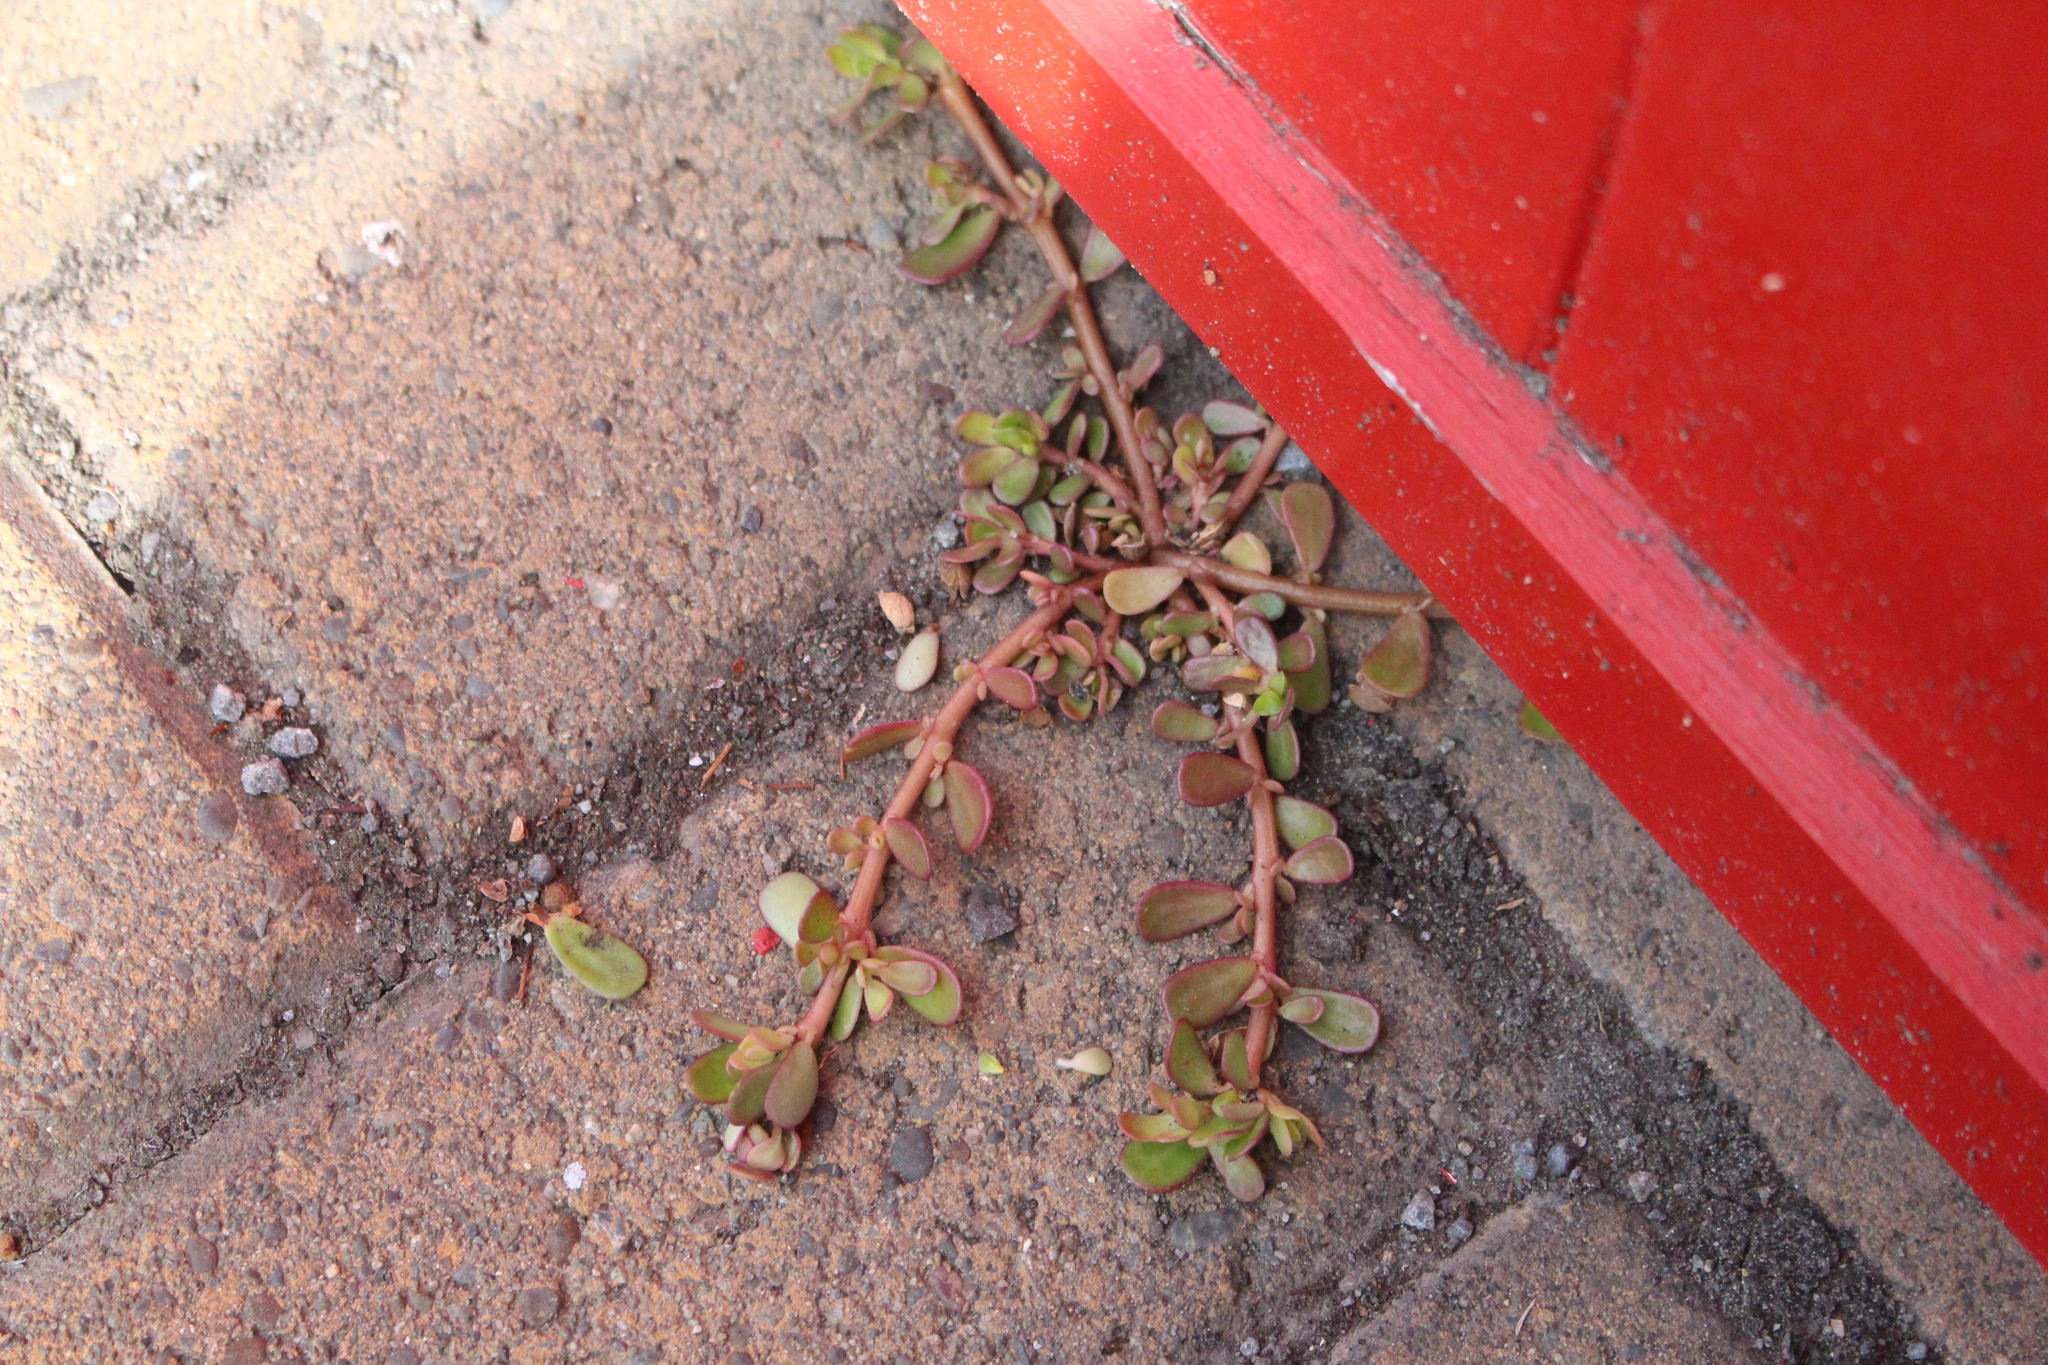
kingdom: Plantae
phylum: Tracheophyta
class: Magnoliopsida
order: Caryophyllales
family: Portulacaceae
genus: Portulaca
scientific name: Portulaca oleracea
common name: Common purslane
